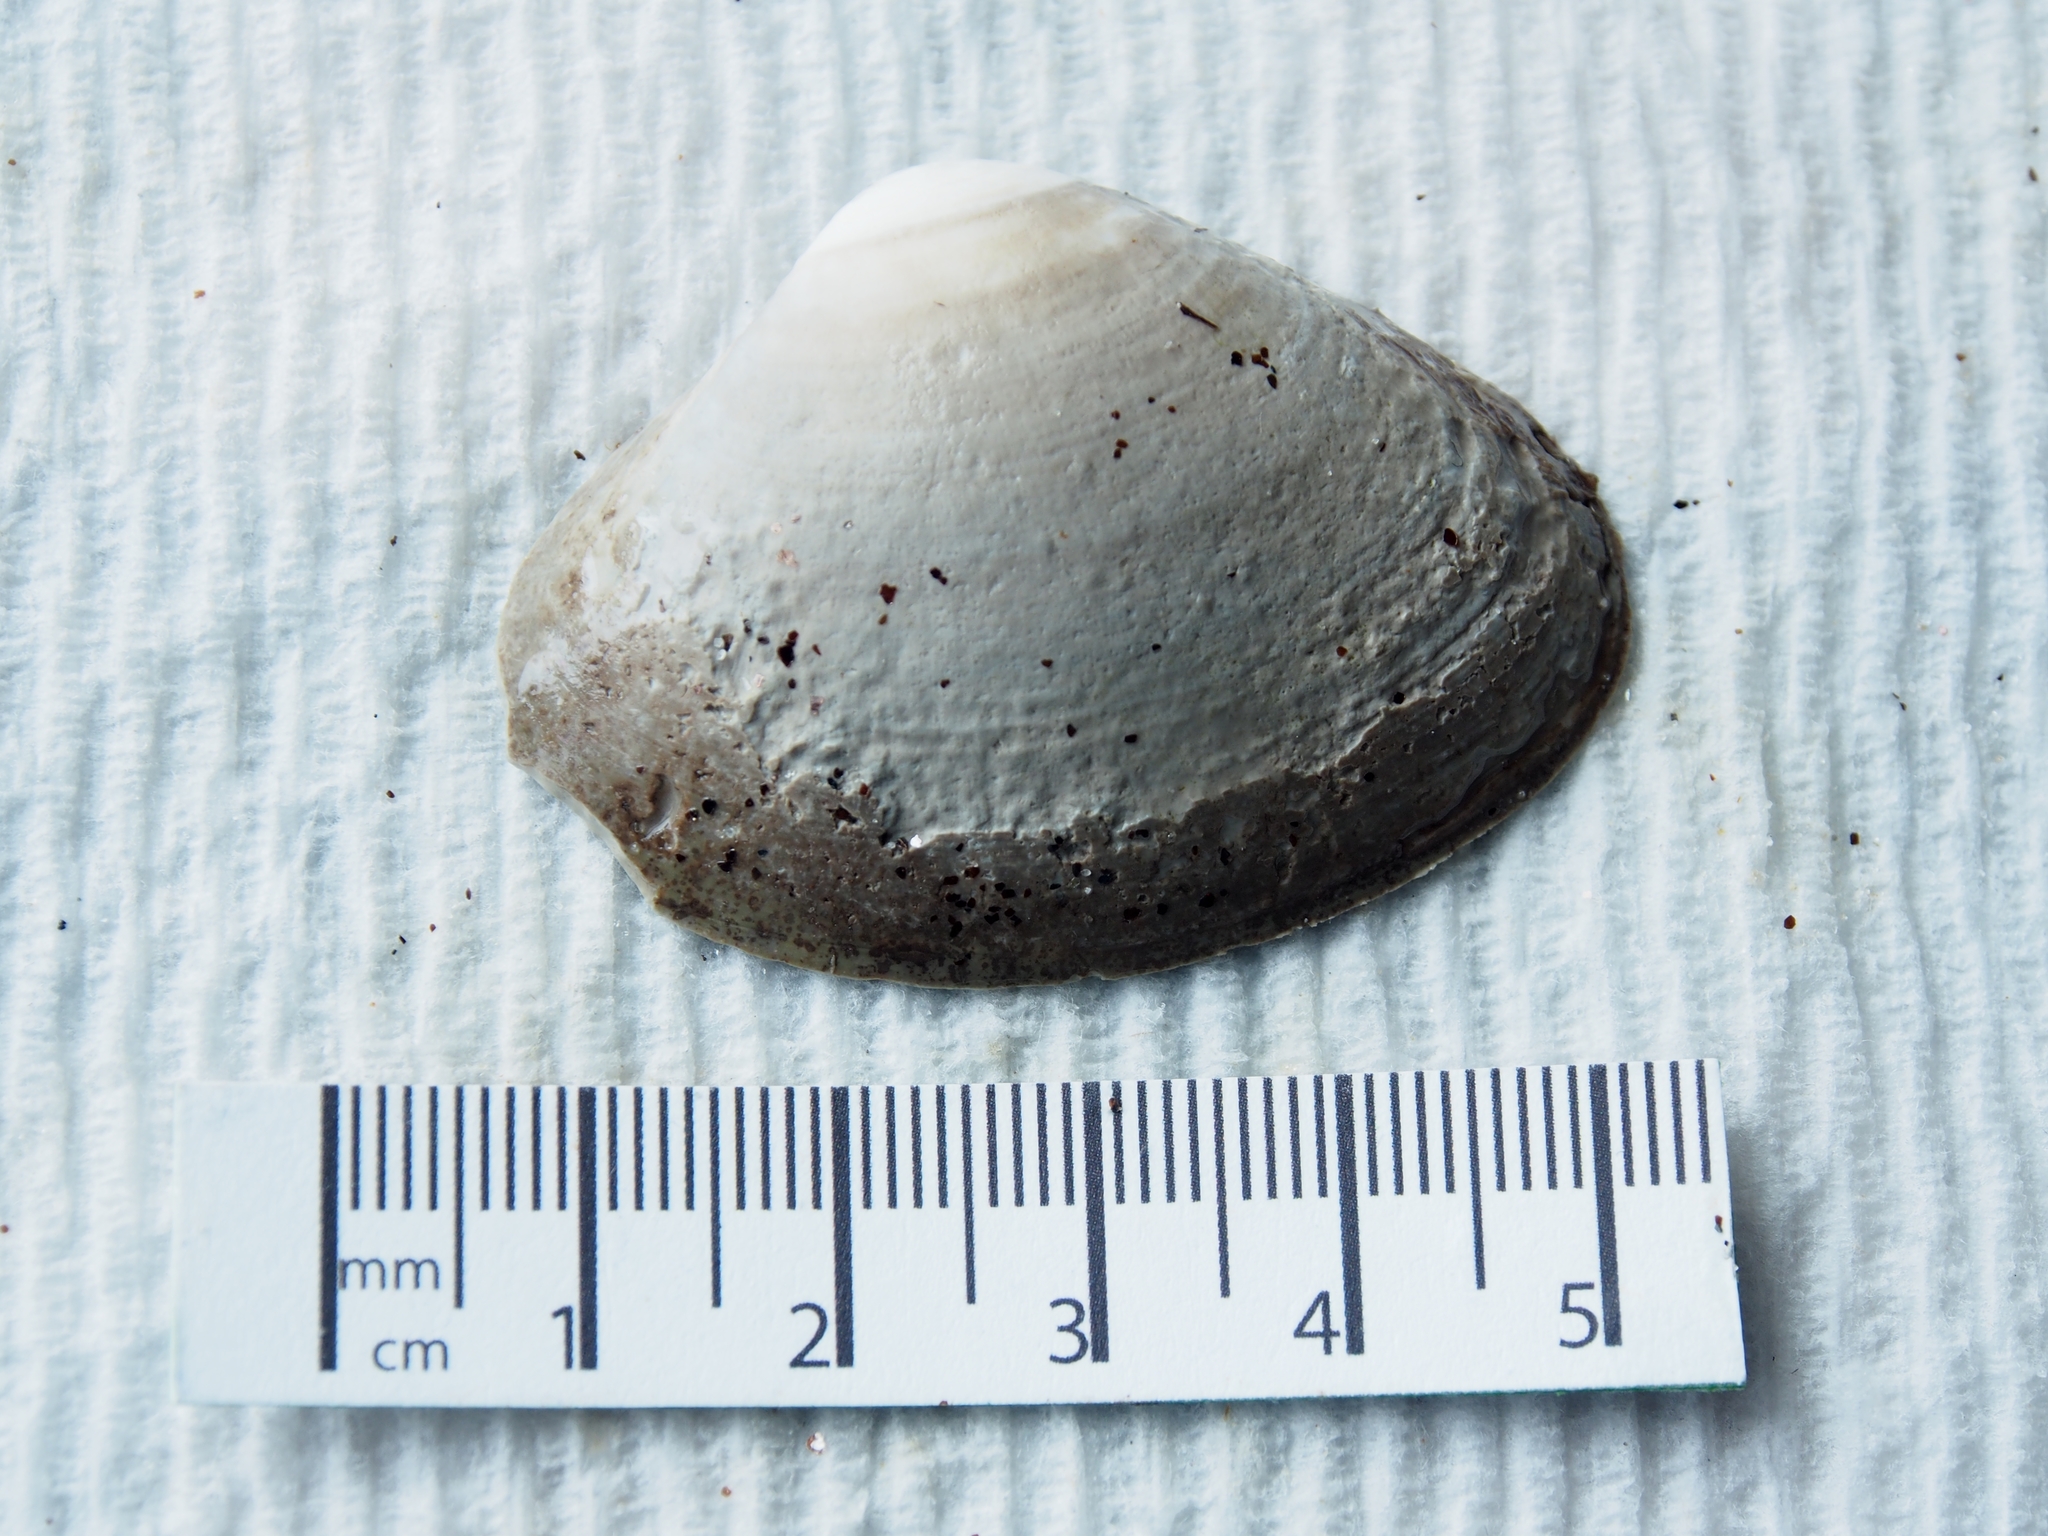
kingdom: Animalia
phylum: Mollusca
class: Bivalvia
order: Venerida
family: Mactridae
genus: Spisula
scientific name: Spisula solidissima
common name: Atlantic surf clam
